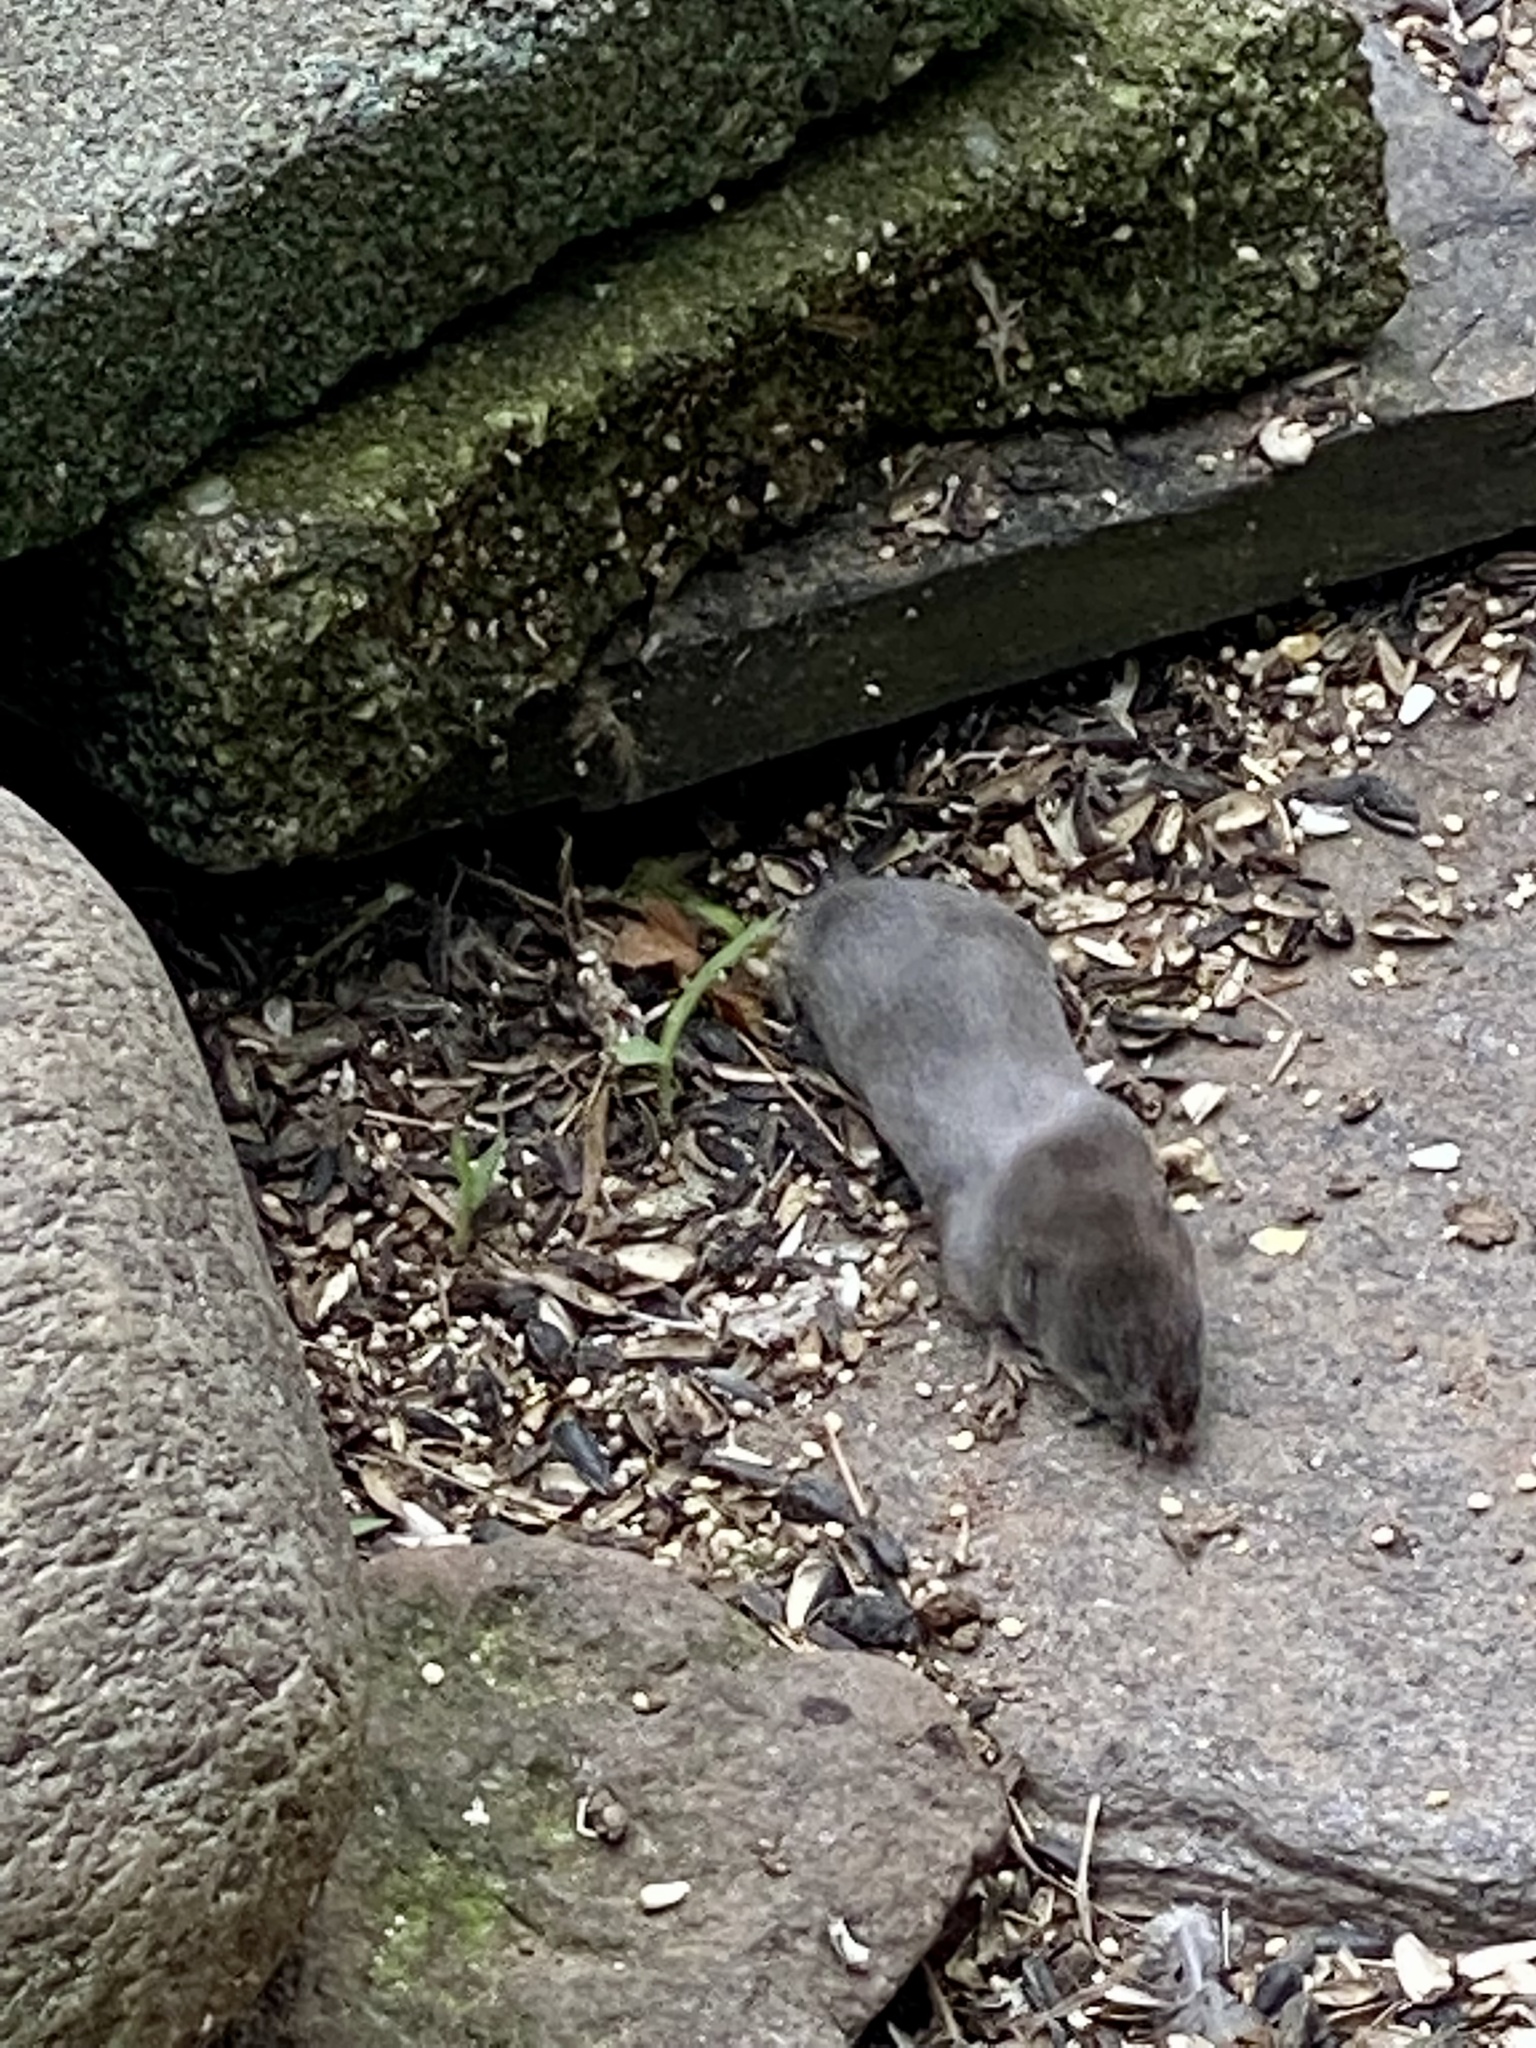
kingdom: Animalia
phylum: Chordata
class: Mammalia
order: Soricomorpha
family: Soricidae
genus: Blarina
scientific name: Blarina brevicauda
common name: Northern short-tailed shrew
